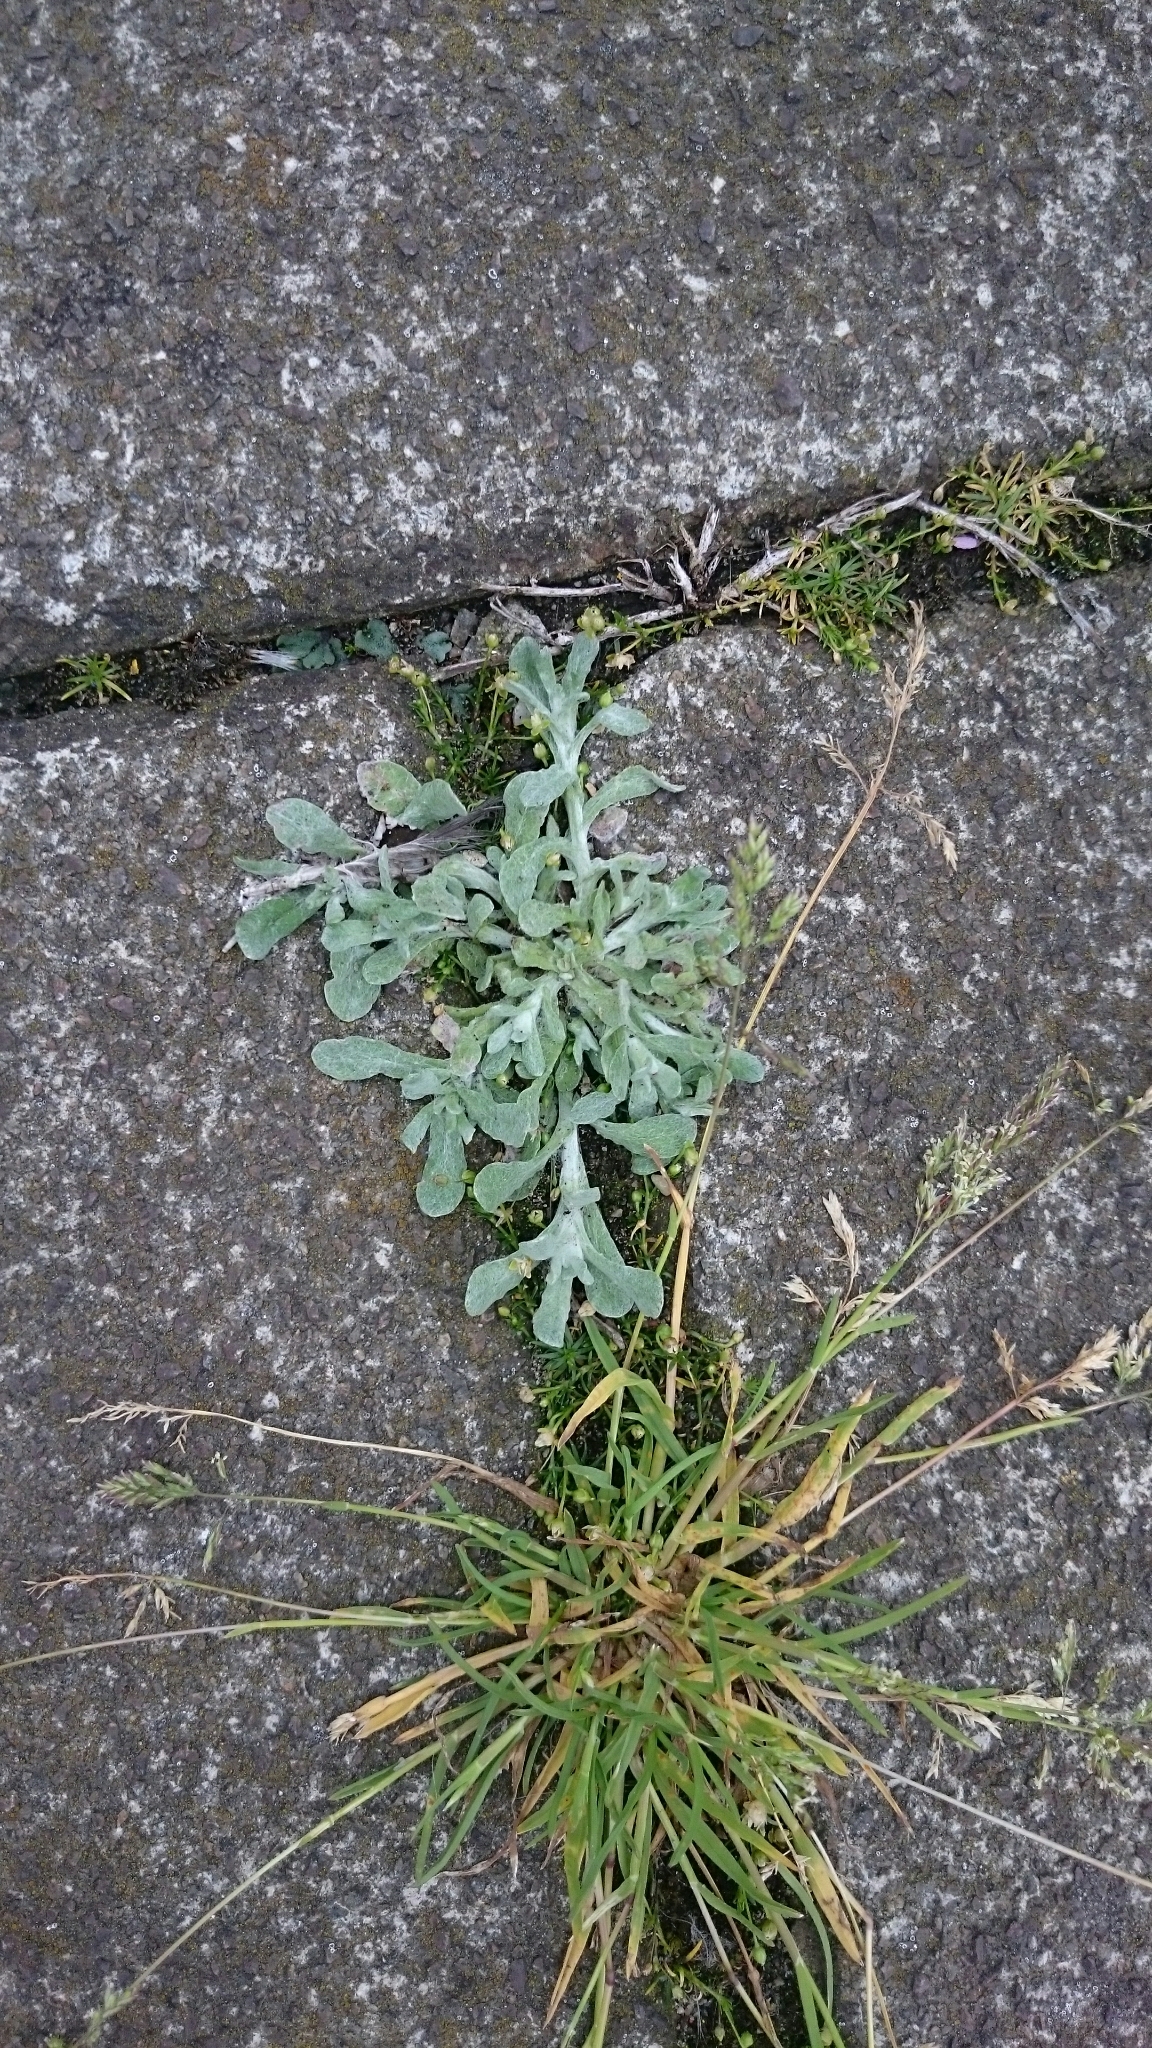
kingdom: Plantae
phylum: Tracheophyta
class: Magnoliopsida
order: Asterales
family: Asteraceae
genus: Helichrysum
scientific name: Helichrysum luteoalbum
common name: Daisy
